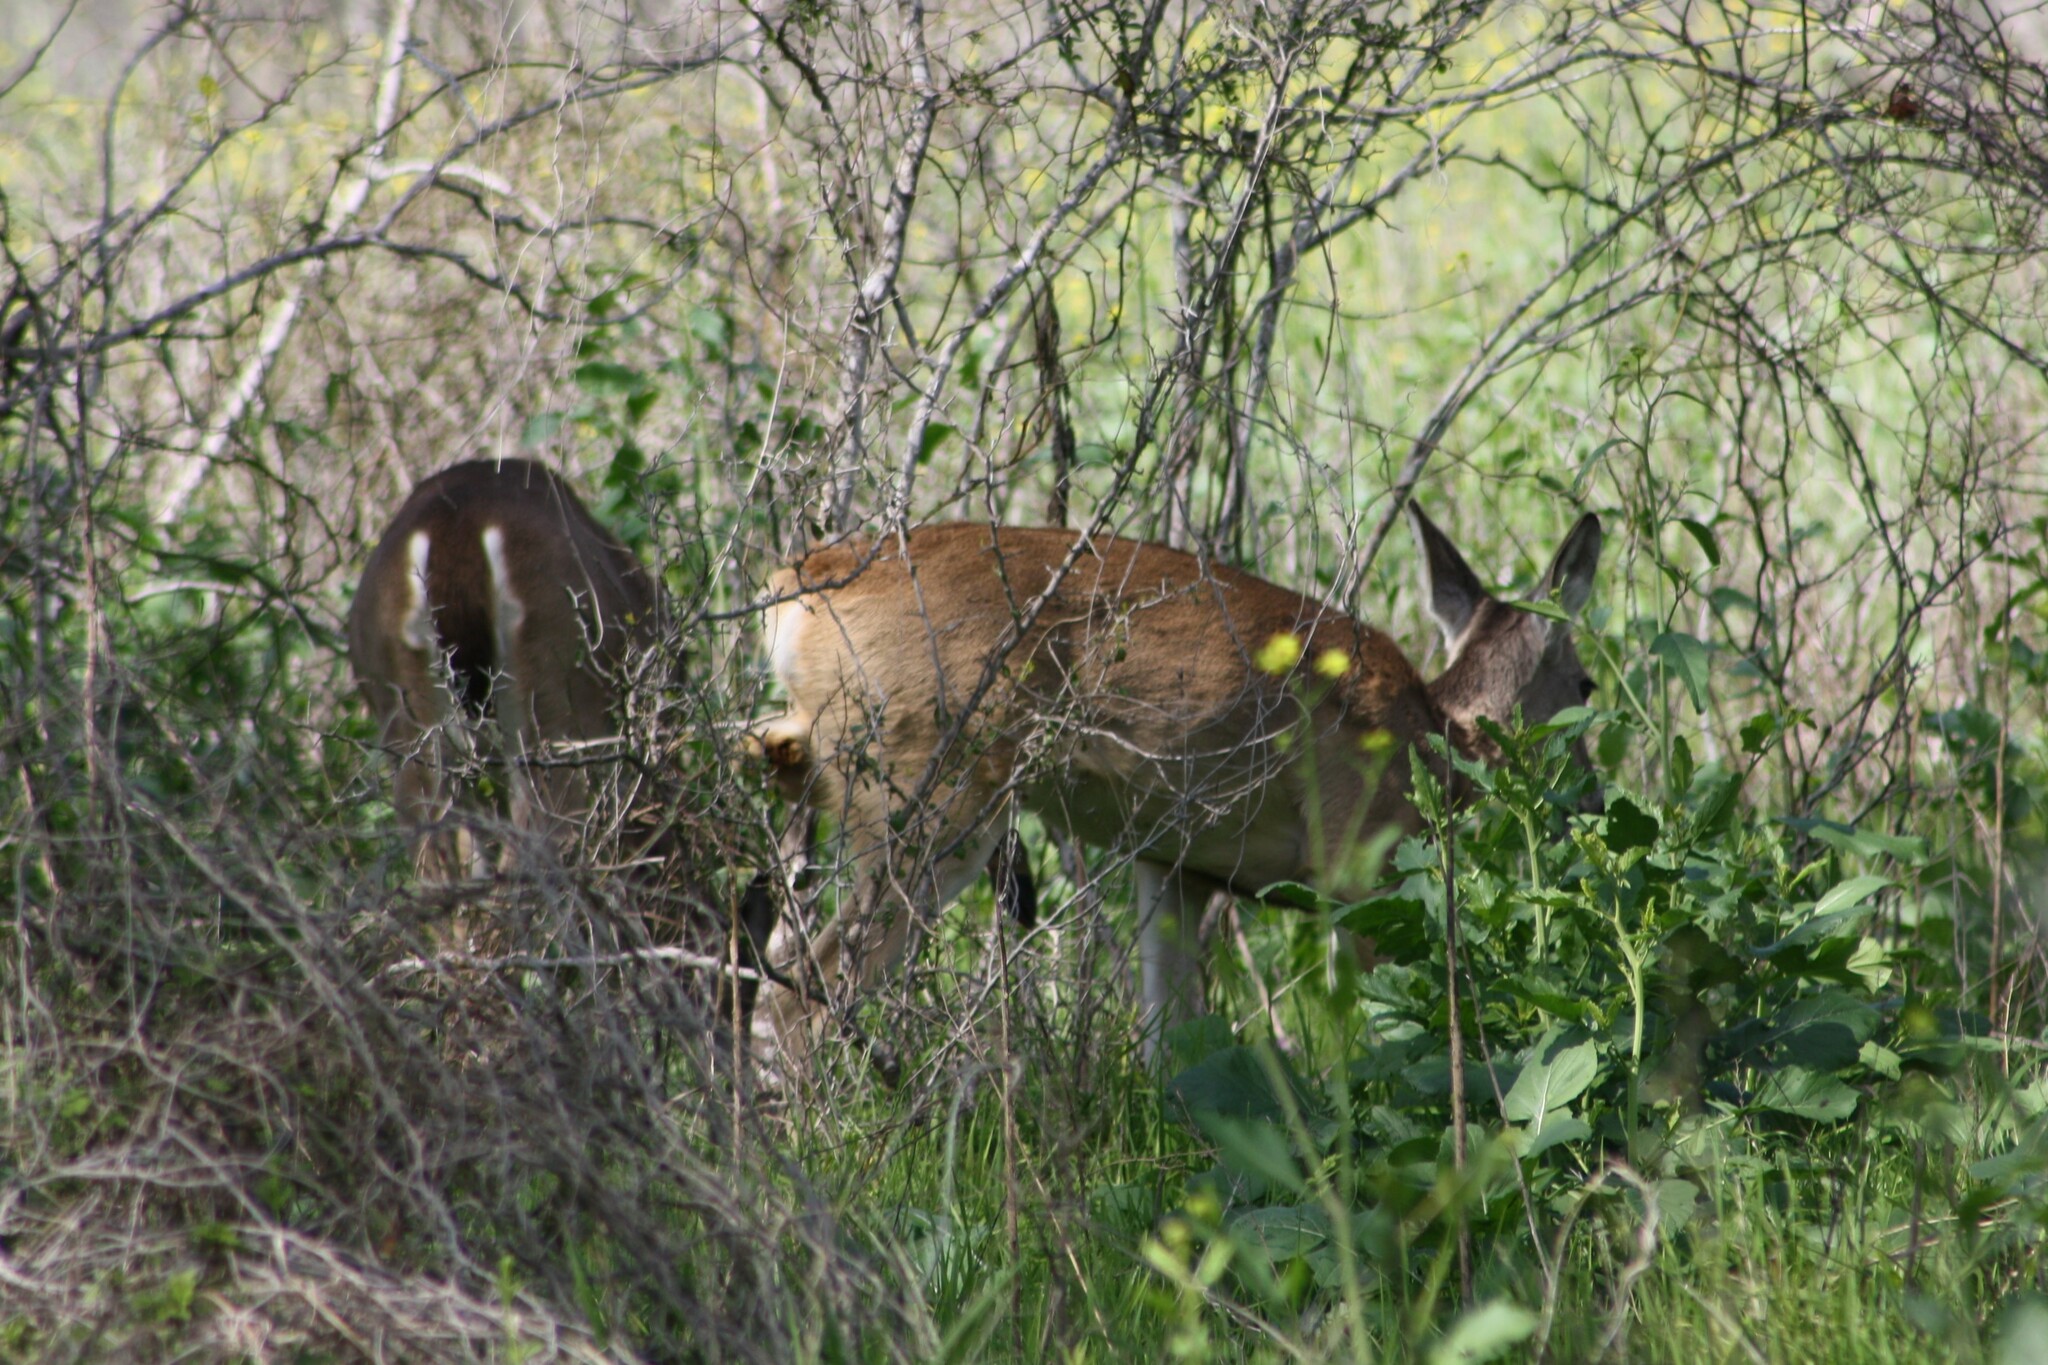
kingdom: Animalia
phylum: Chordata
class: Mammalia
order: Artiodactyla
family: Cervidae
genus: Odocoileus
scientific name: Odocoileus virginianus
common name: White-tailed deer
